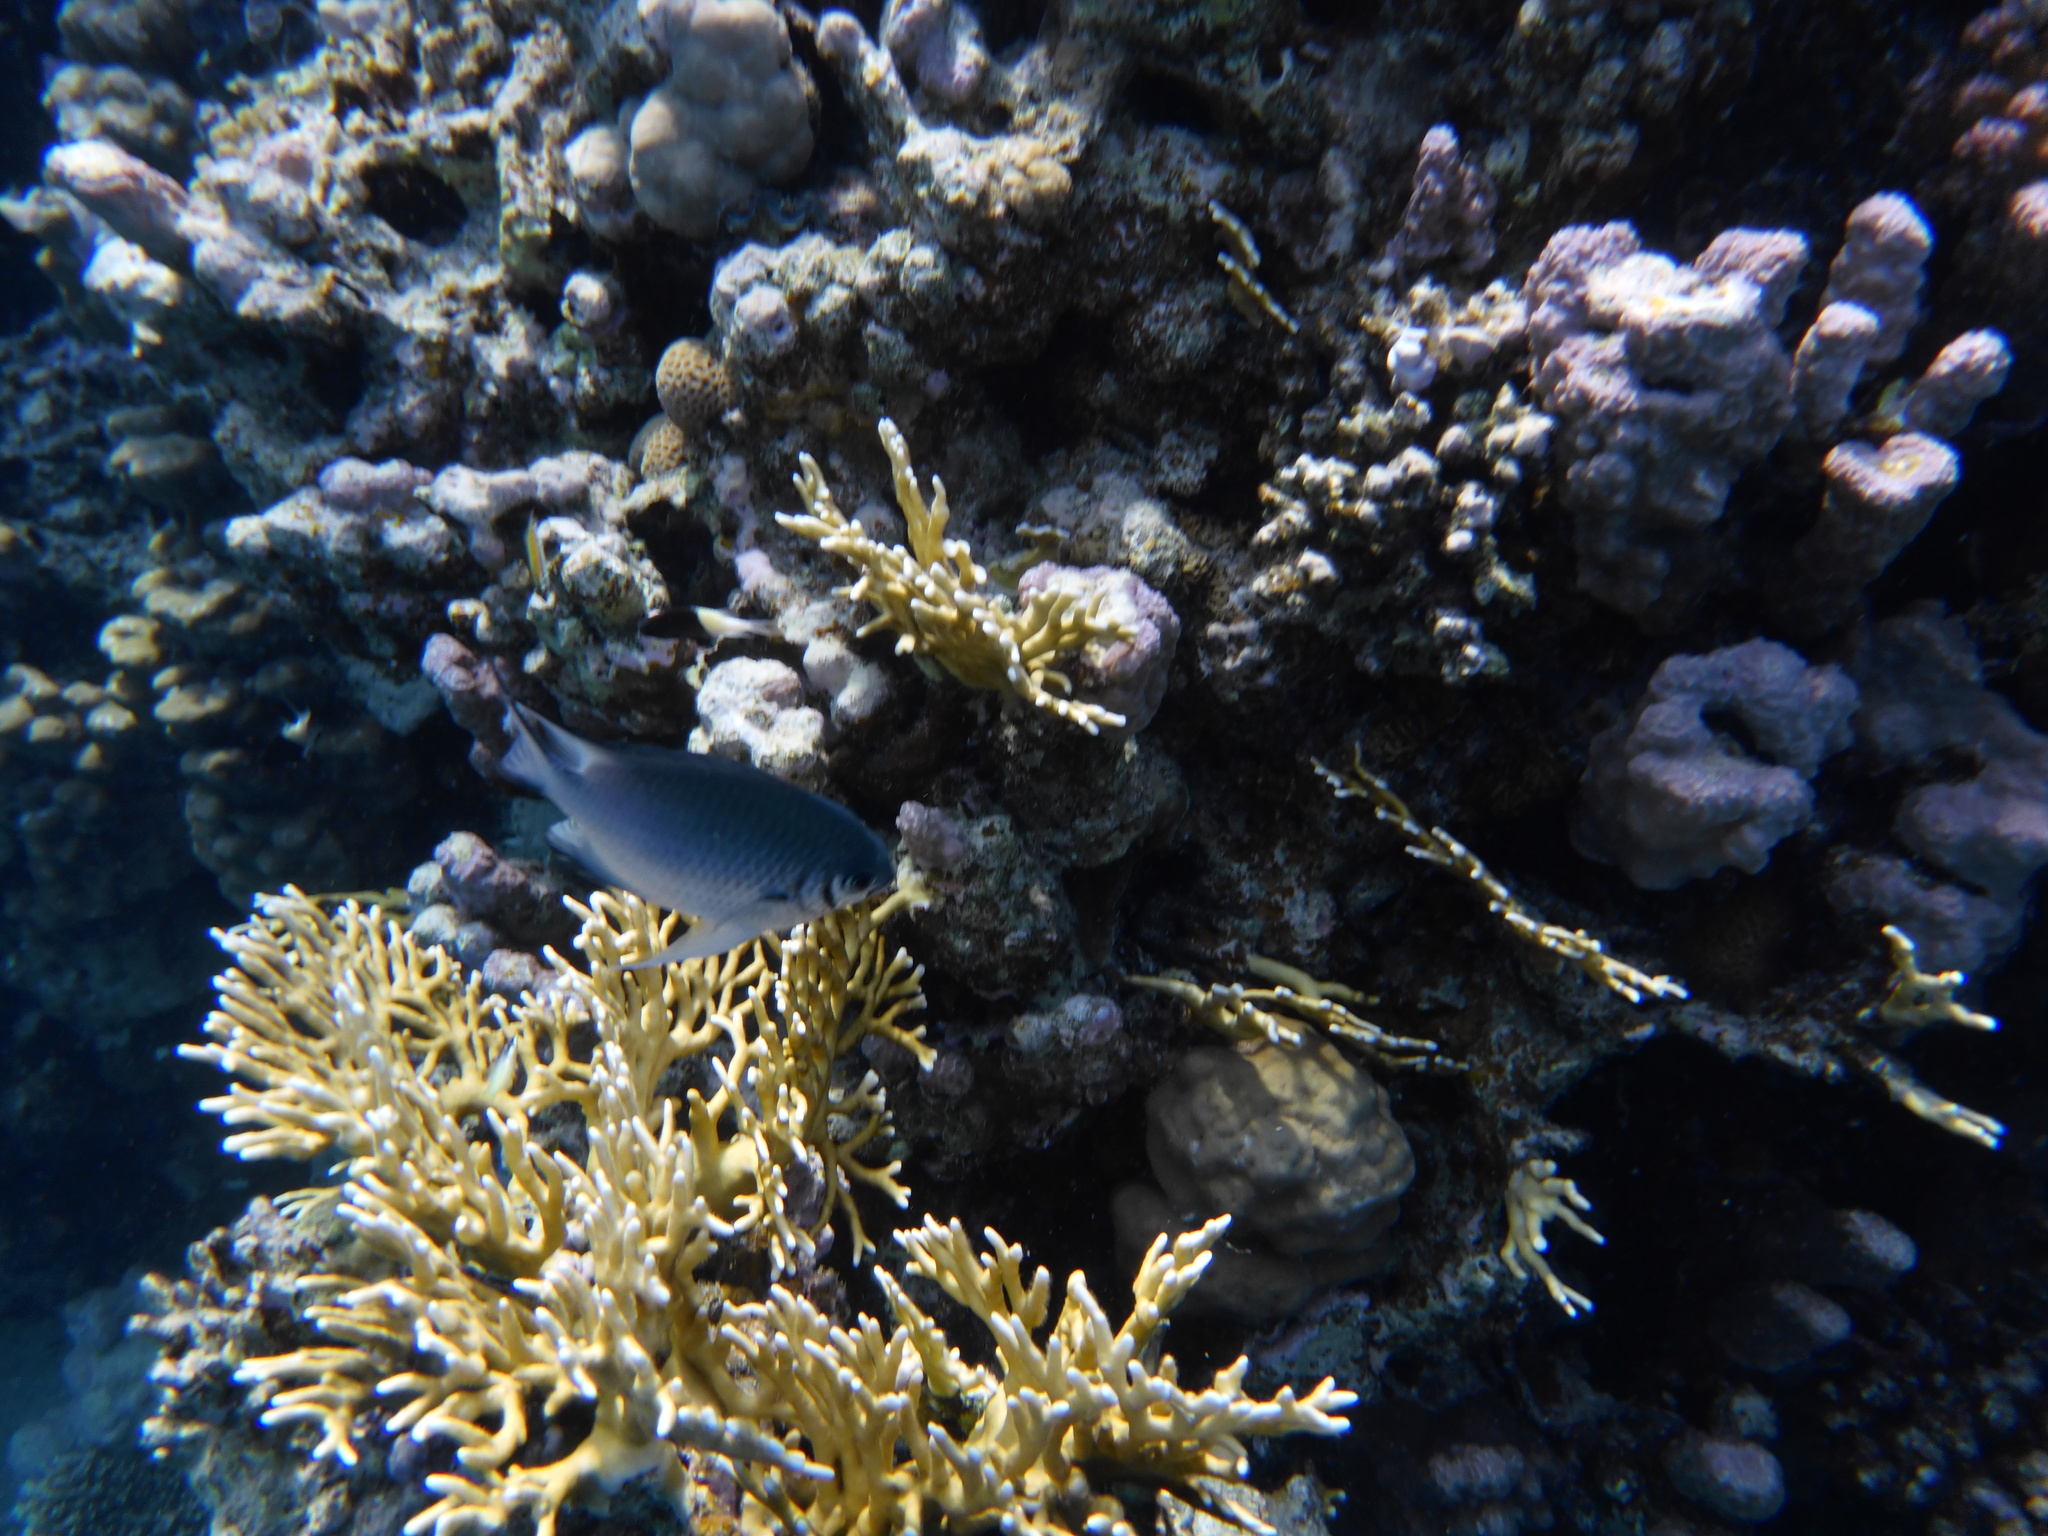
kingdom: Animalia
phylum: Chordata
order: Perciformes
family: Pomacentridae
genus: Amblyglyphidodon
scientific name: Amblyglyphidodon indicus
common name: Maldives damselfish
